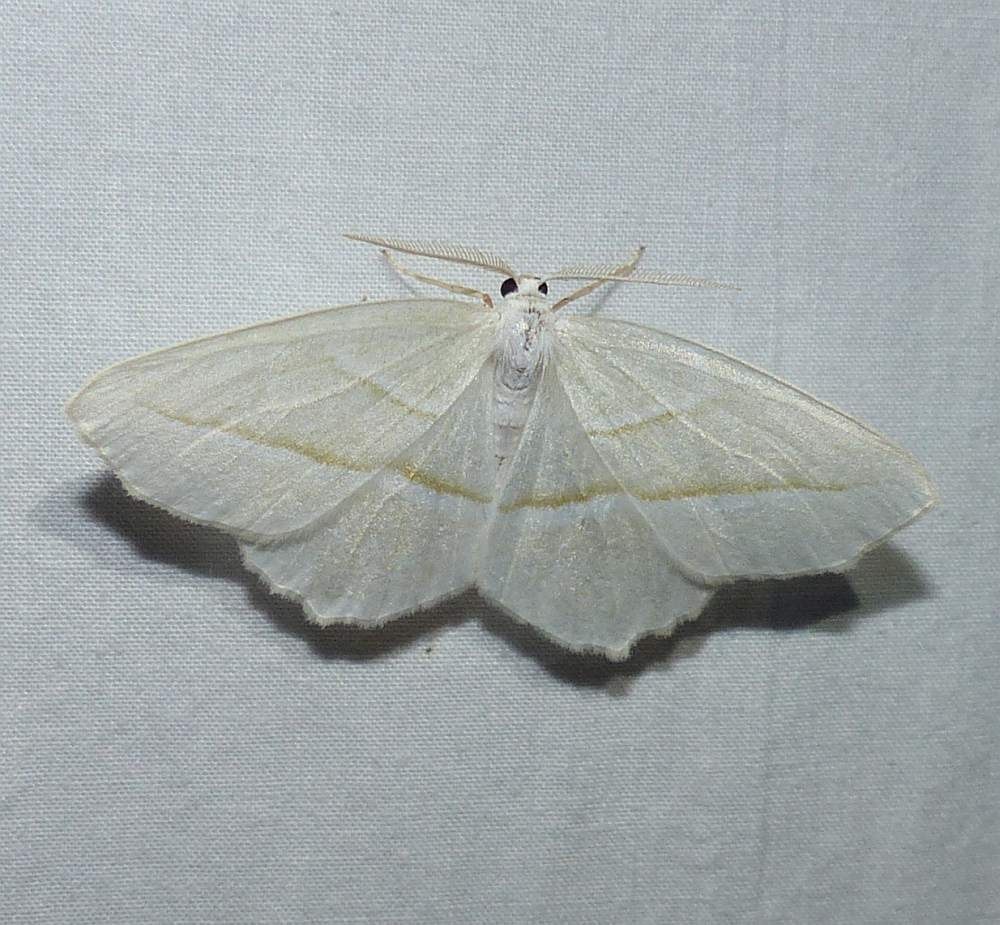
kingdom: Animalia
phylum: Arthropoda
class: Insecta
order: Lepidoptera
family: Geometridae
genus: Campaea
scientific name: Campaea perlata
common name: Fringed looper
